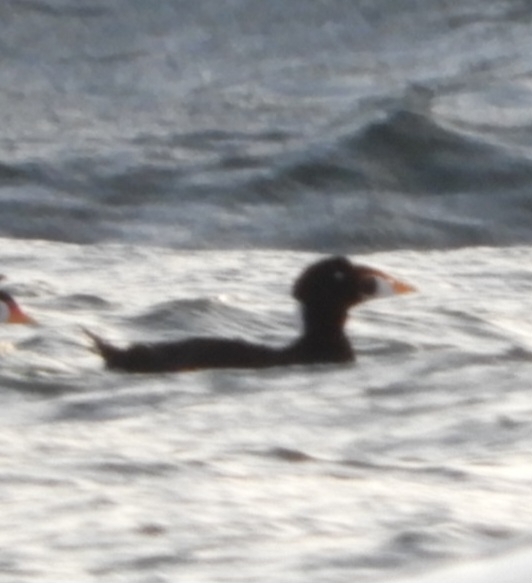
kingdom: Animalia
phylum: Chordata
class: Aves
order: Anseriformes
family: Anatidae
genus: Melanitta
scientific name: Melanitta perspicillata
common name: Surf scoter
